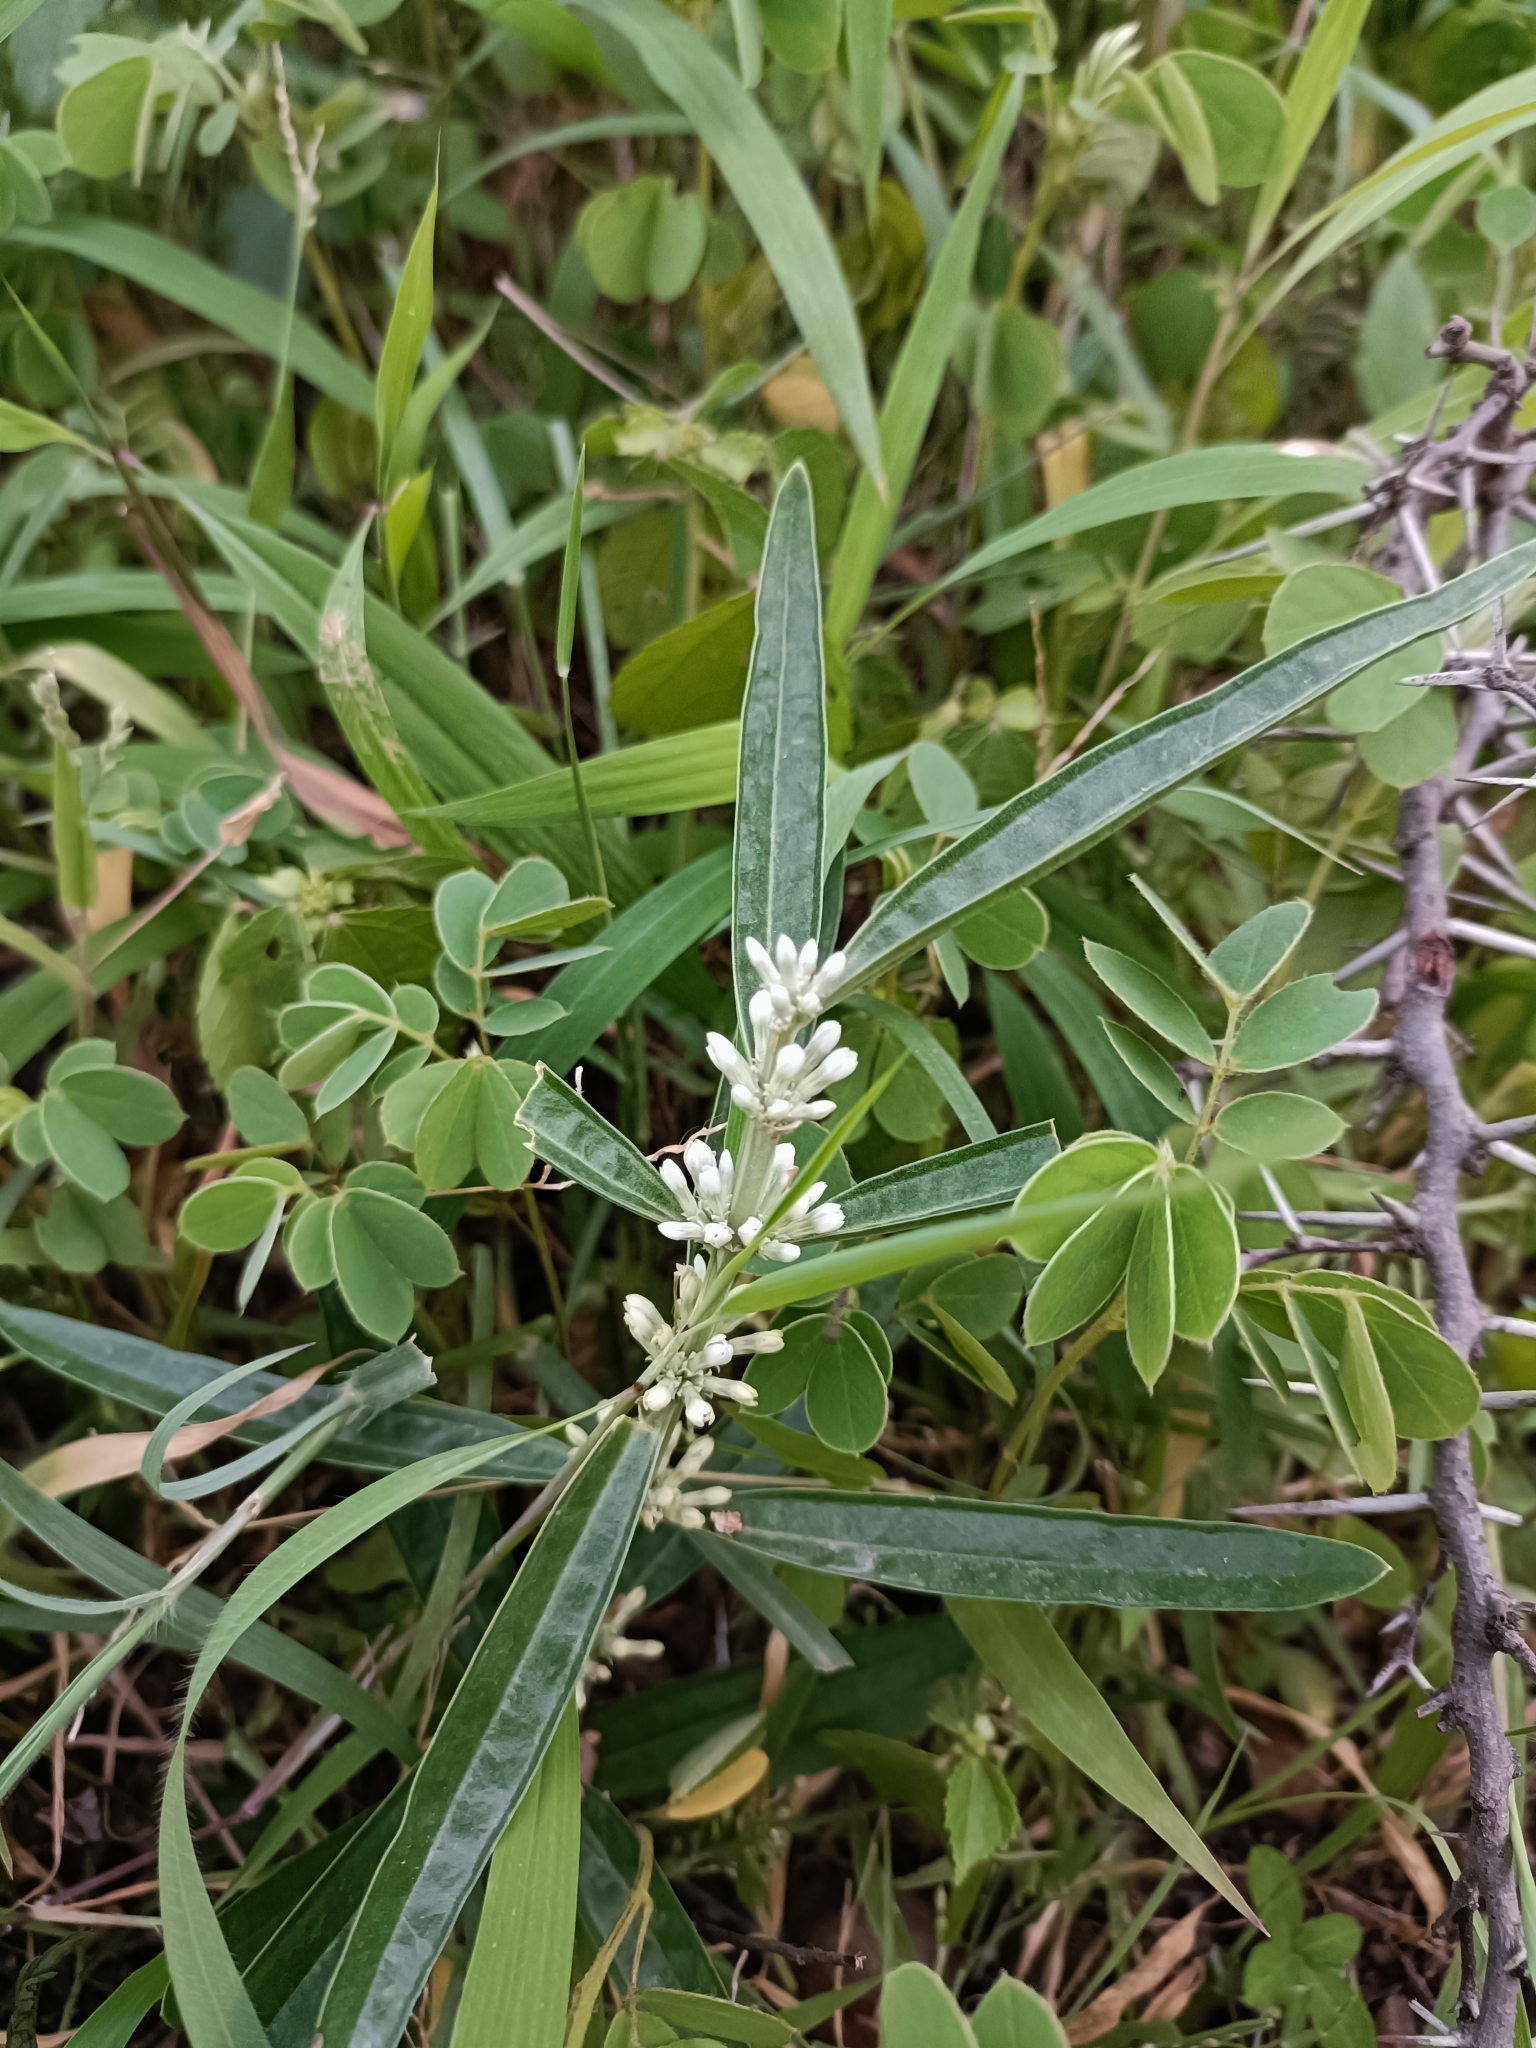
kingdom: Plantae
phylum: Tracheophyta
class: Magnoliopsida
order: Gentianales
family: Gentianaceae
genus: Enicostema
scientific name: Enicostema axillare
